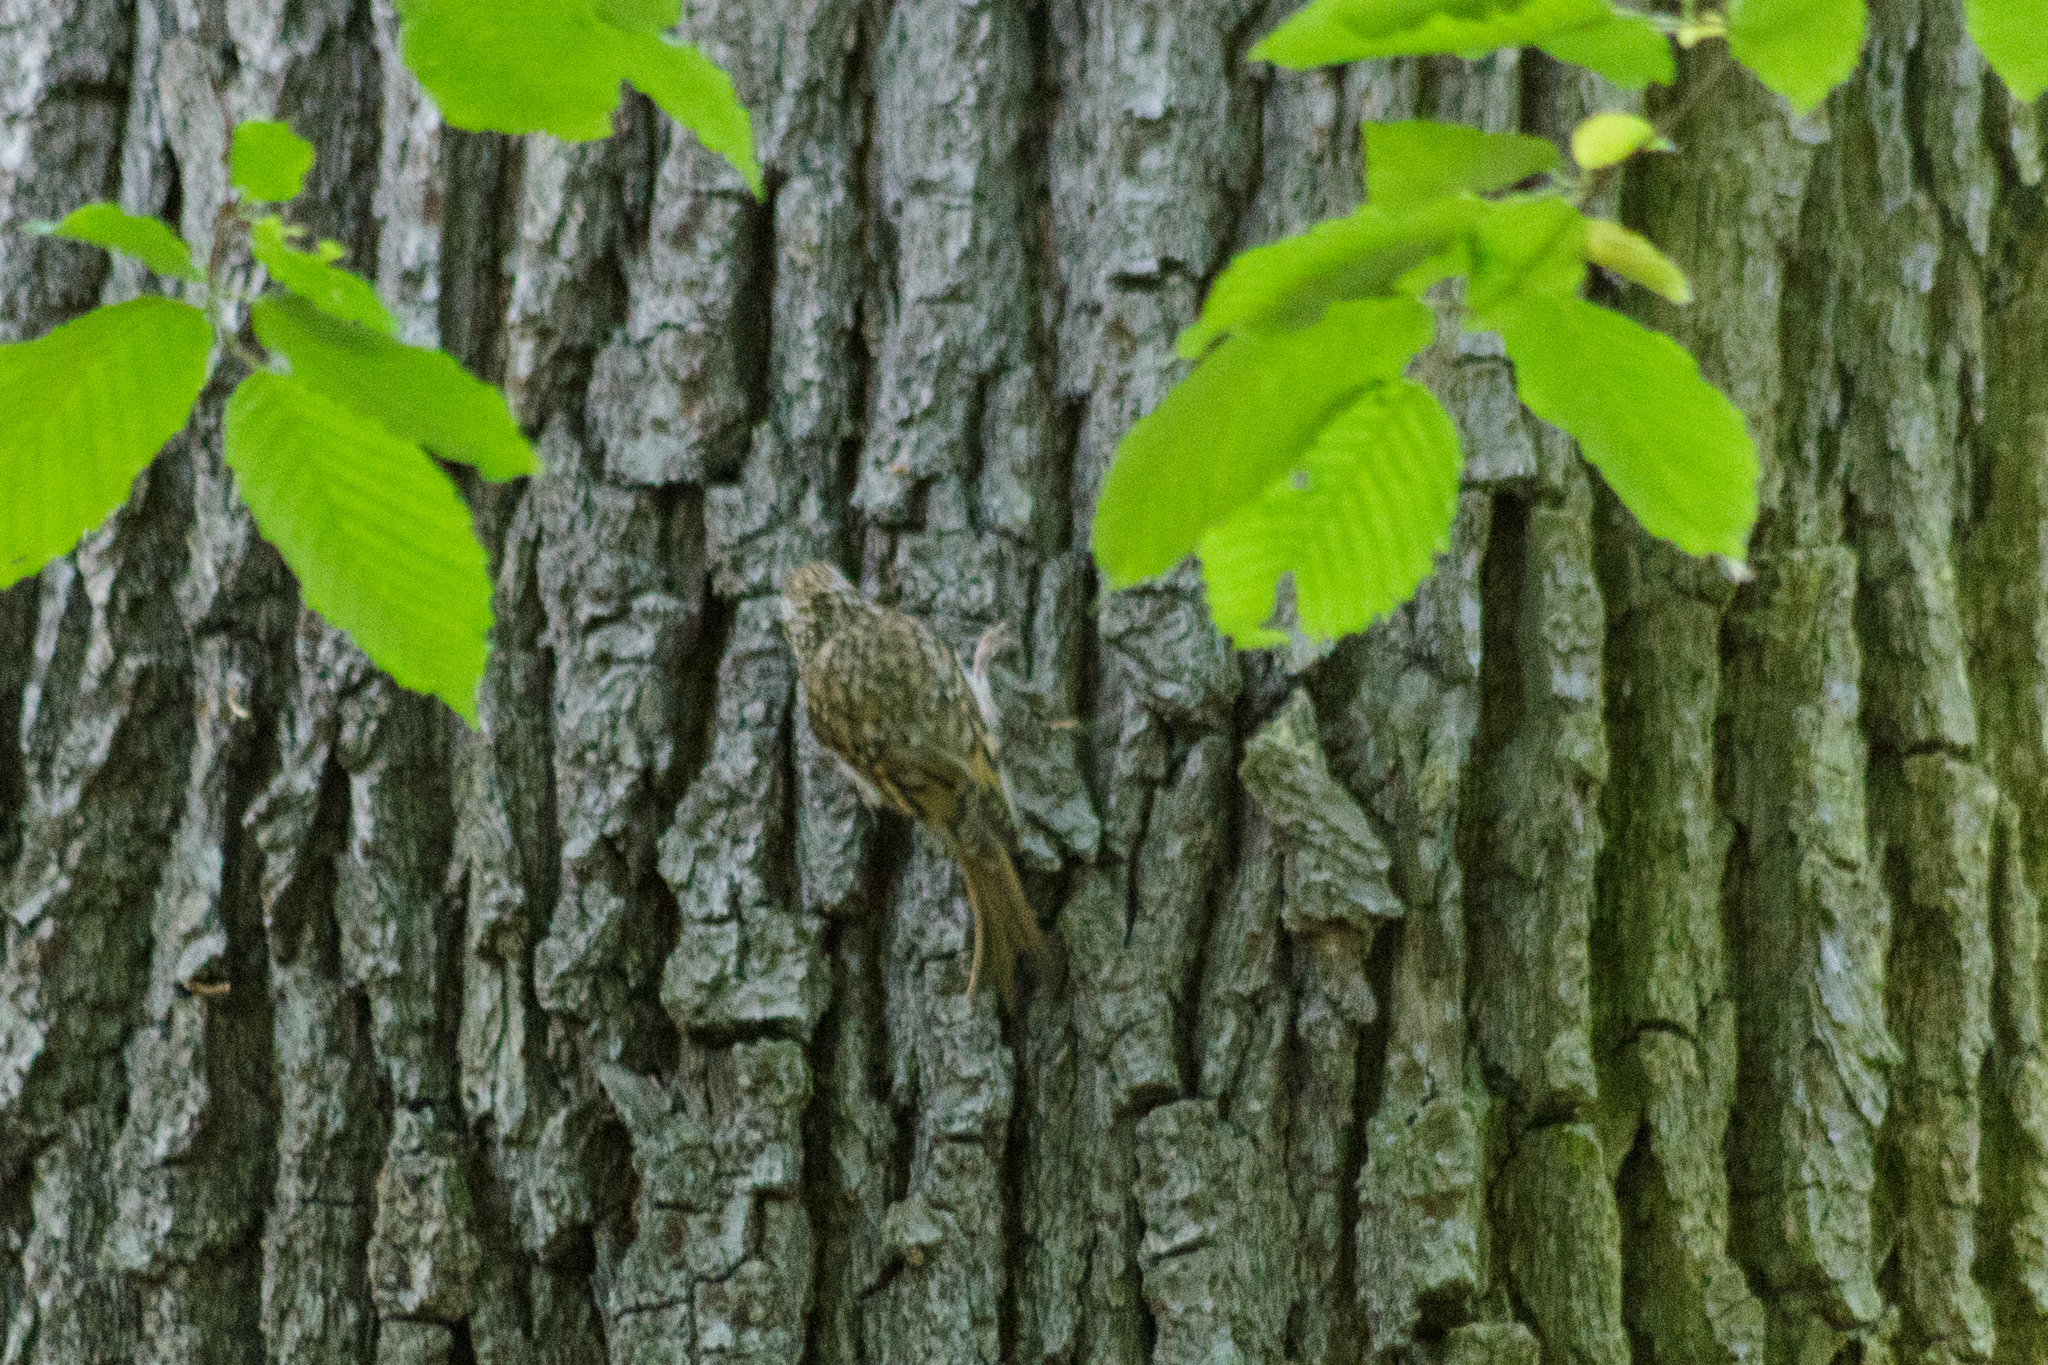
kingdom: Animalia
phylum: Chordata
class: Aves
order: Passeriformes
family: Certhiidae
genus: Certhia
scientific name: Certhia
